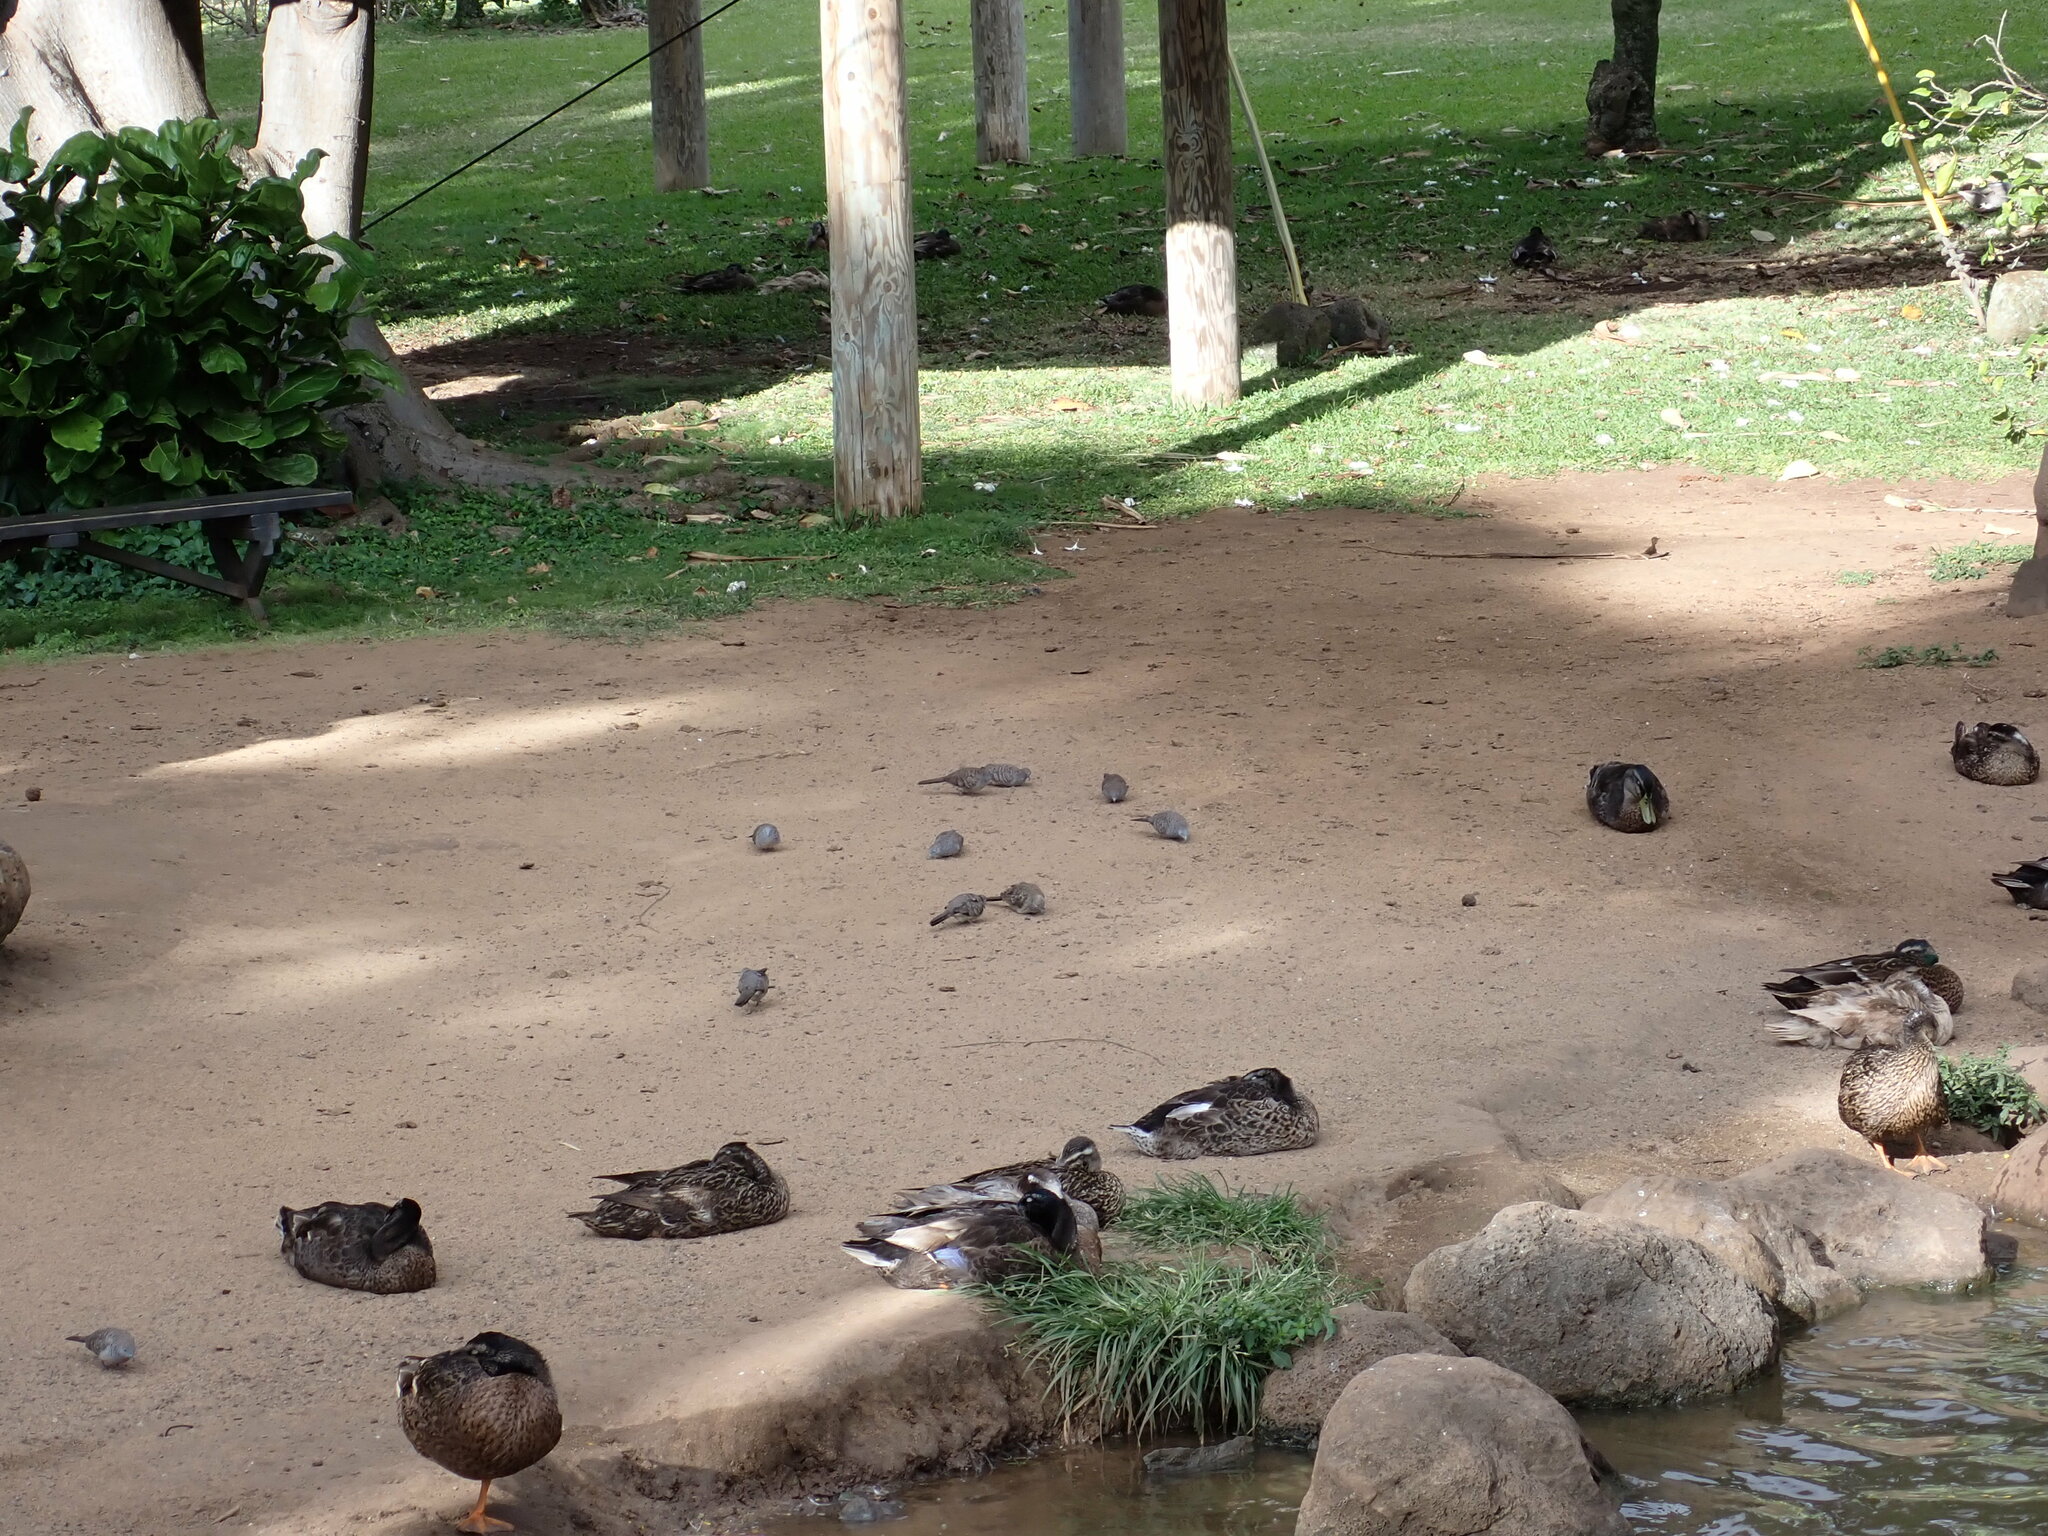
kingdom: Animalia
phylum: Chordata
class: Aves
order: Columbiformes
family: Columbidae
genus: Geopelia
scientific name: Geopelia striata
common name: Zebra dove
